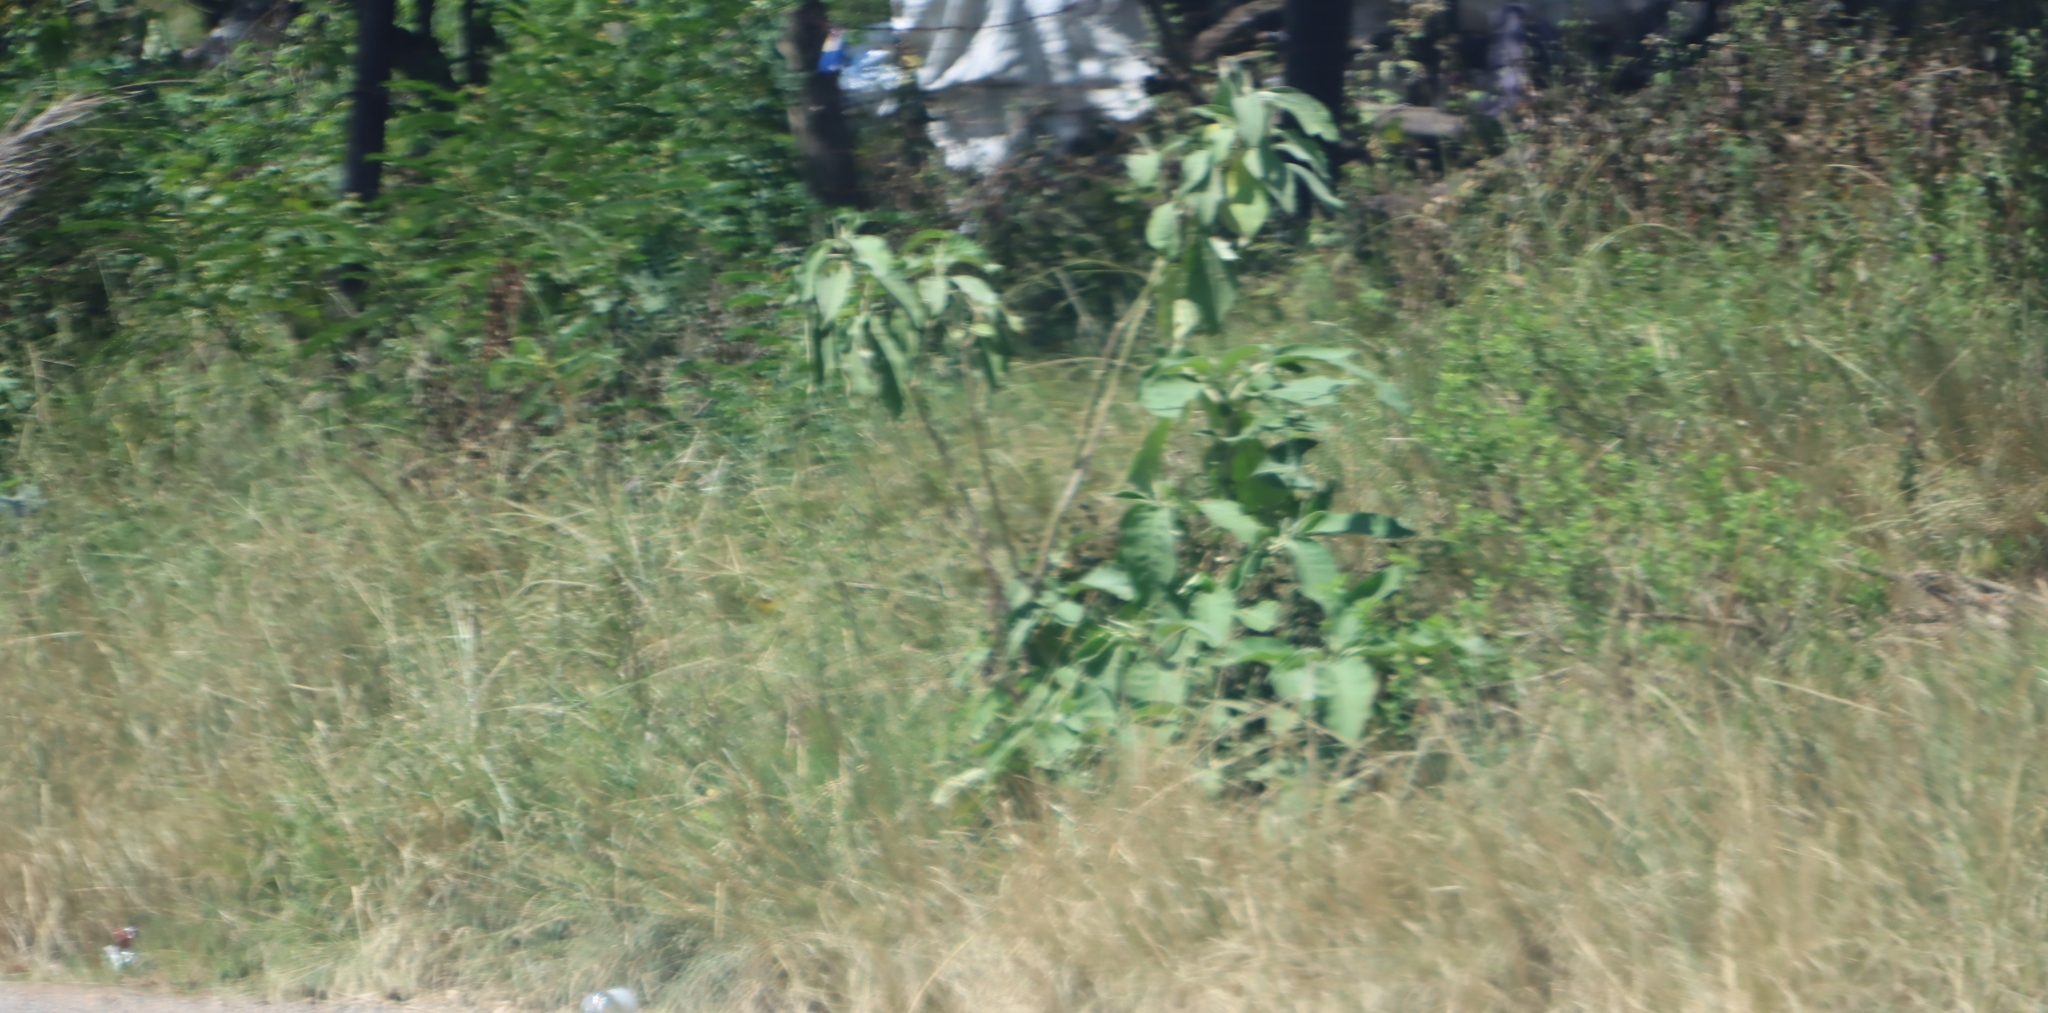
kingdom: Plantae
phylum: Tracheophyta
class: Magnoliopsida
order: Solanales
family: Solanaceae
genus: Solanum
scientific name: Solanum mauritianum
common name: Earleaf nightshade
